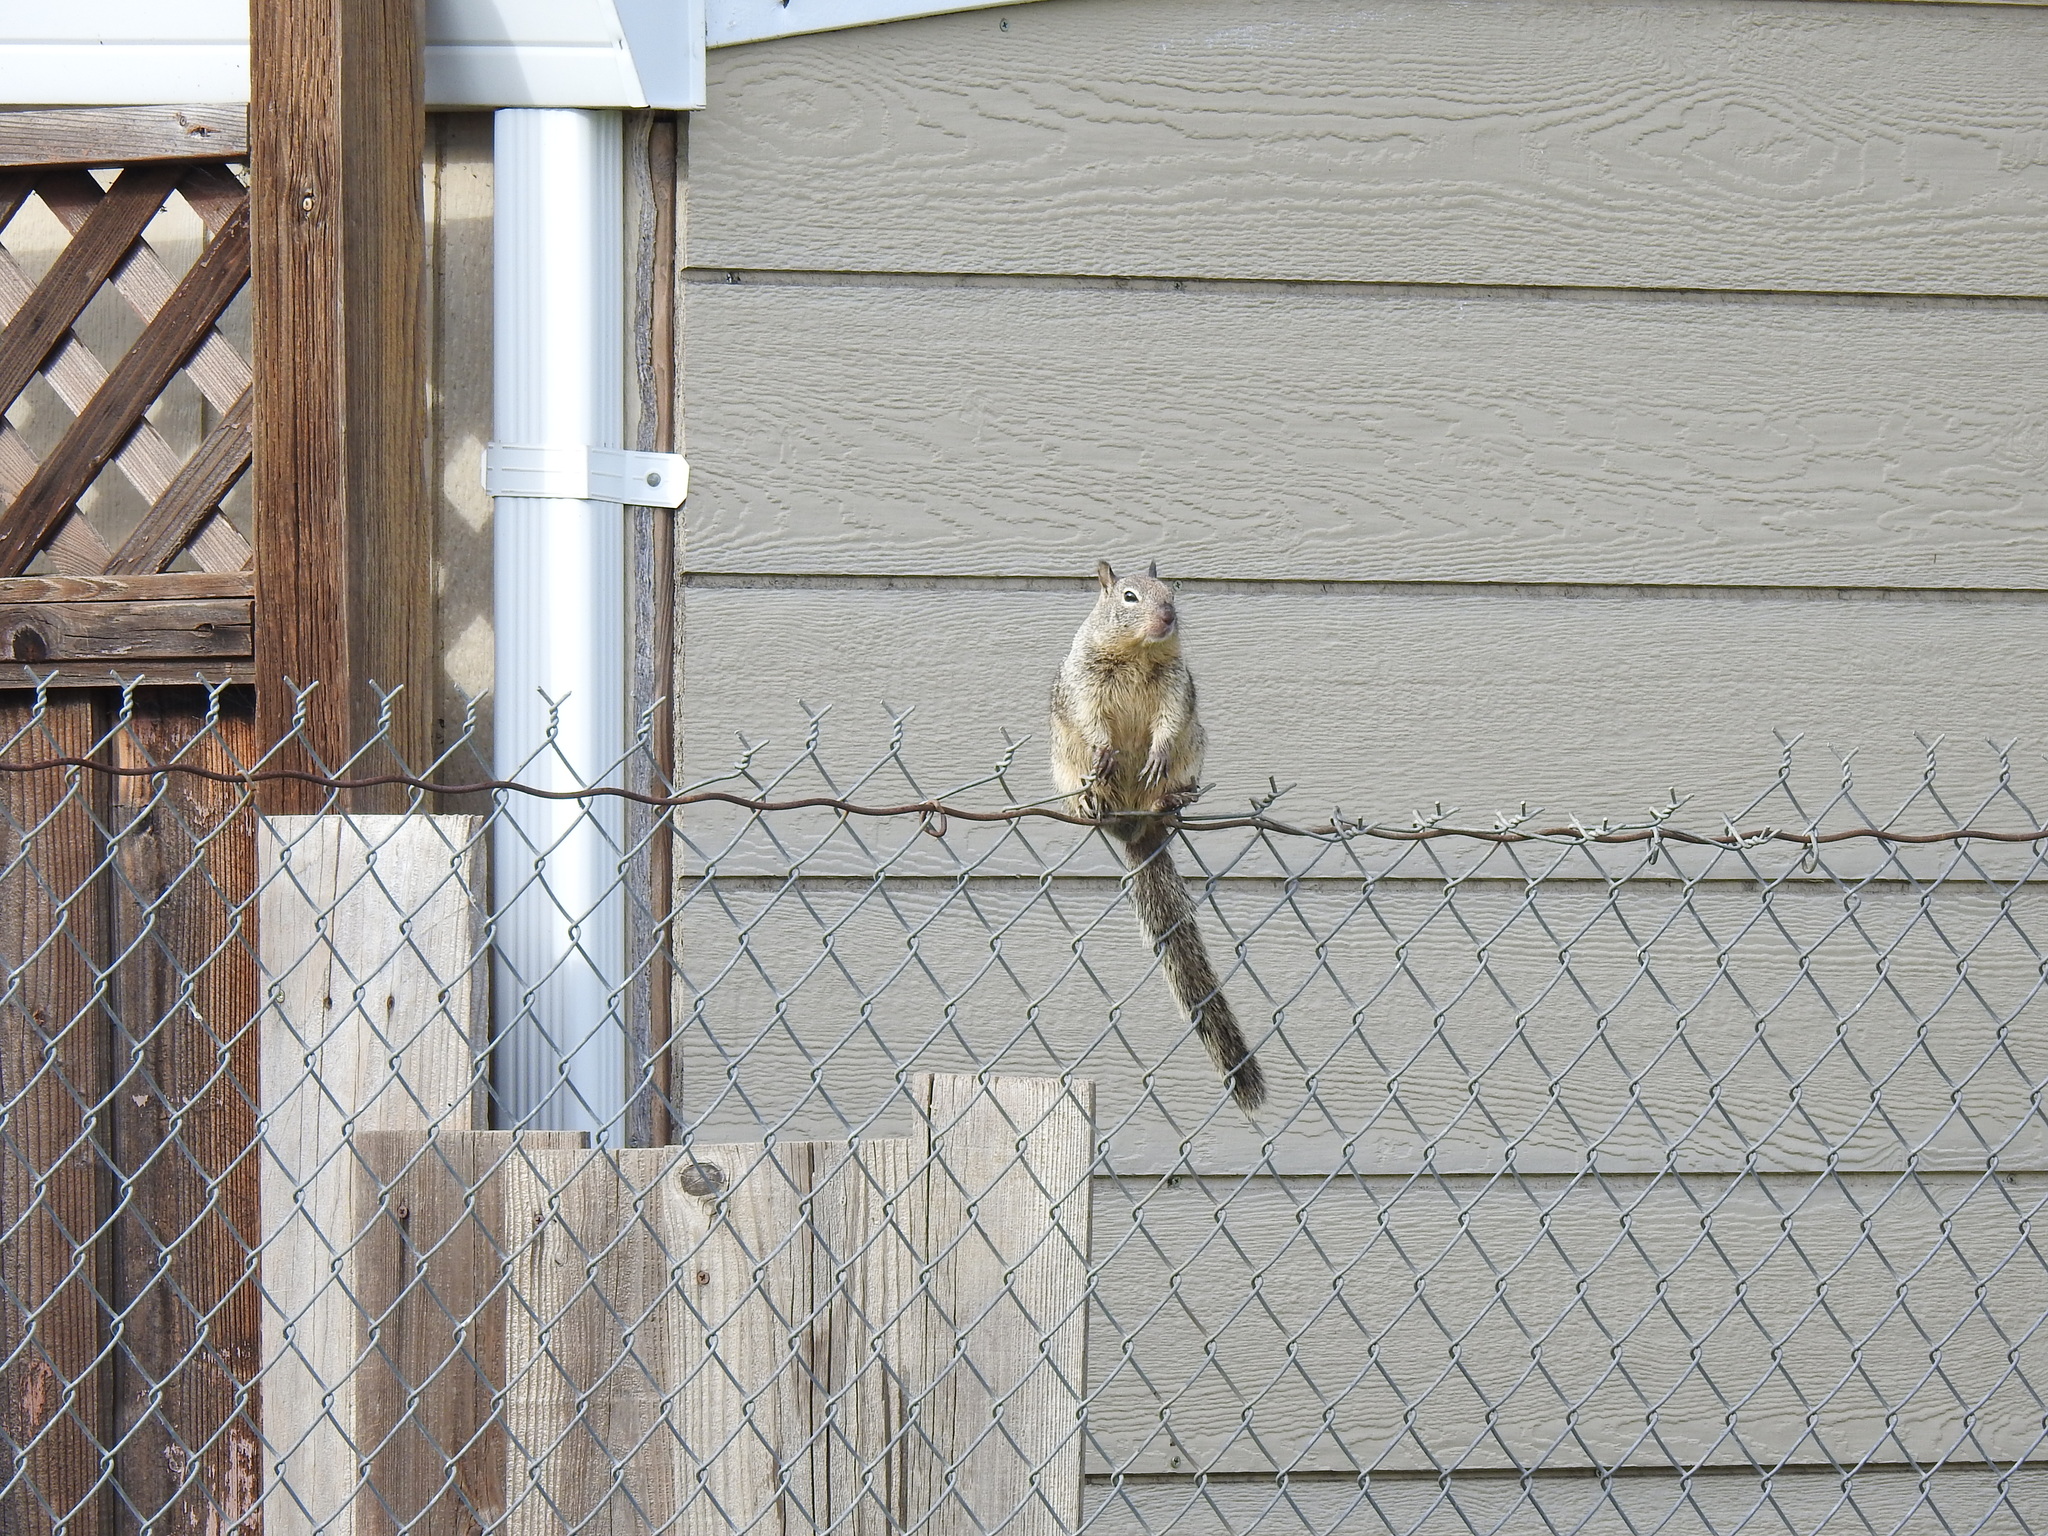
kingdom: Animalia
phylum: Chordata
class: Mammalia
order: Rodentia
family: Sciuridae
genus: Otospermophilus
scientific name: Otospermophilus beecheyi
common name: California ground squirrel
